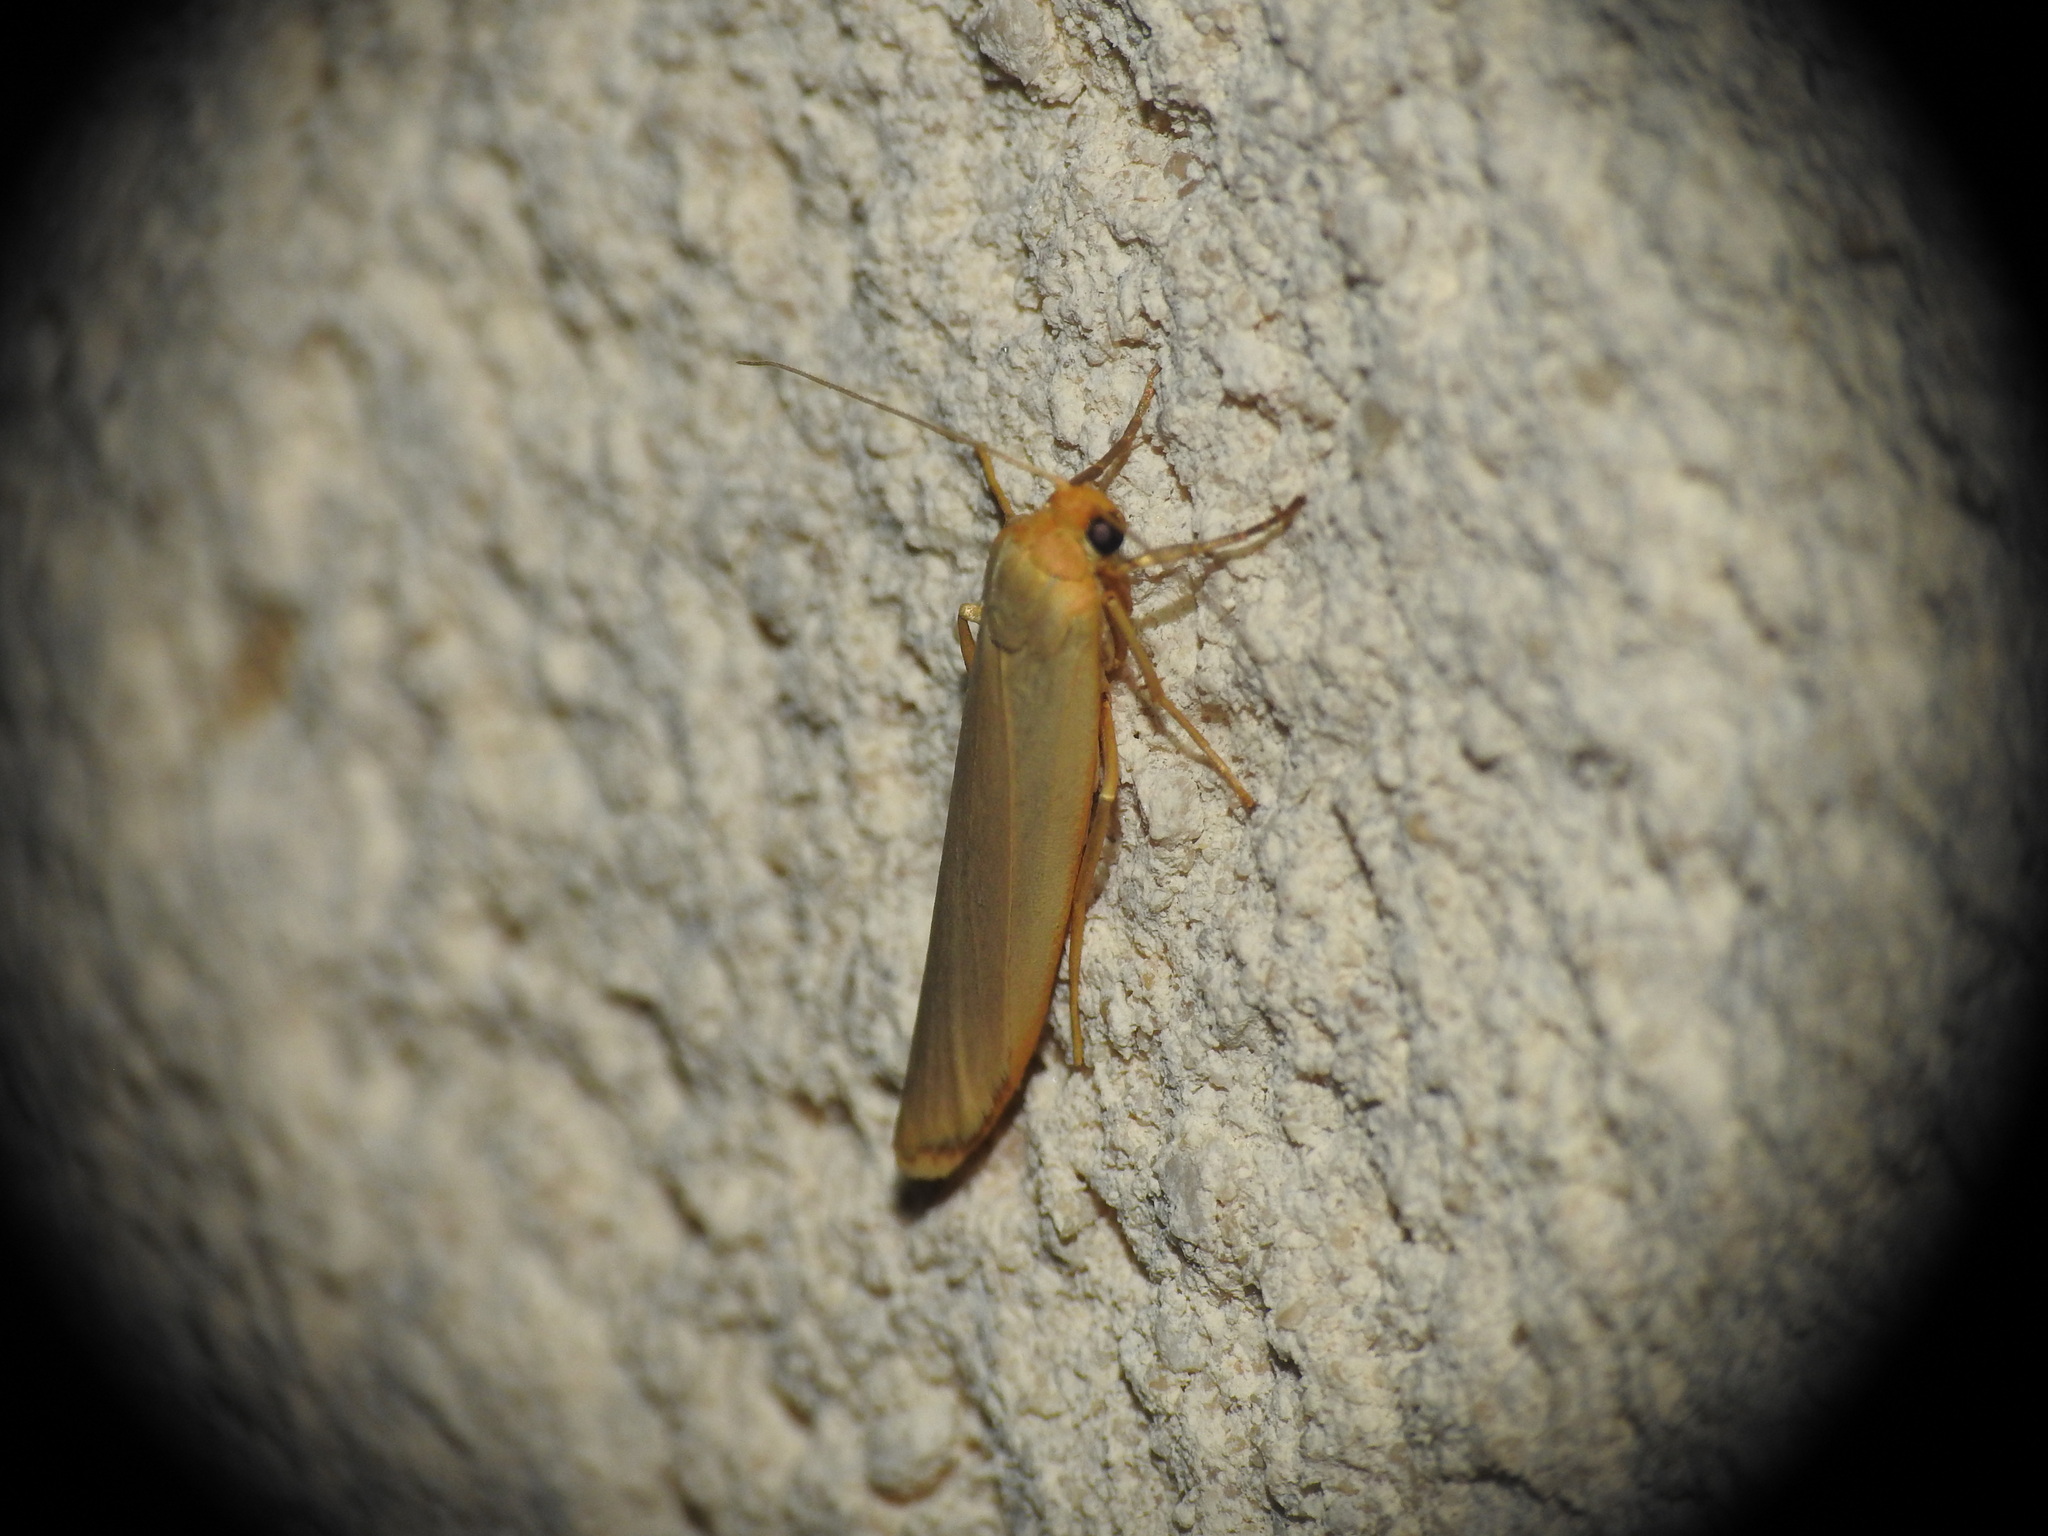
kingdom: Animalia
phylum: Arthropoda
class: Insecta
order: Lepidoptera
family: Erebidae
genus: Manulea
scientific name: Manulea complana
